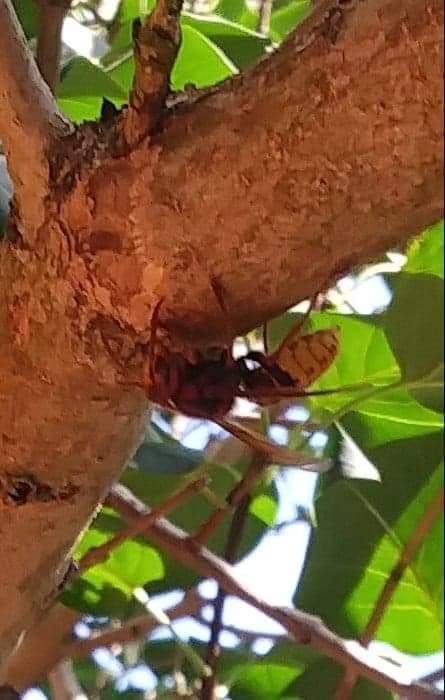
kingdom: Animalia
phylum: Arthropoda
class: Insecta
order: Hymenoptera
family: Vespidae
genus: Vespa
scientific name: Vespa crabro
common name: Hornet
